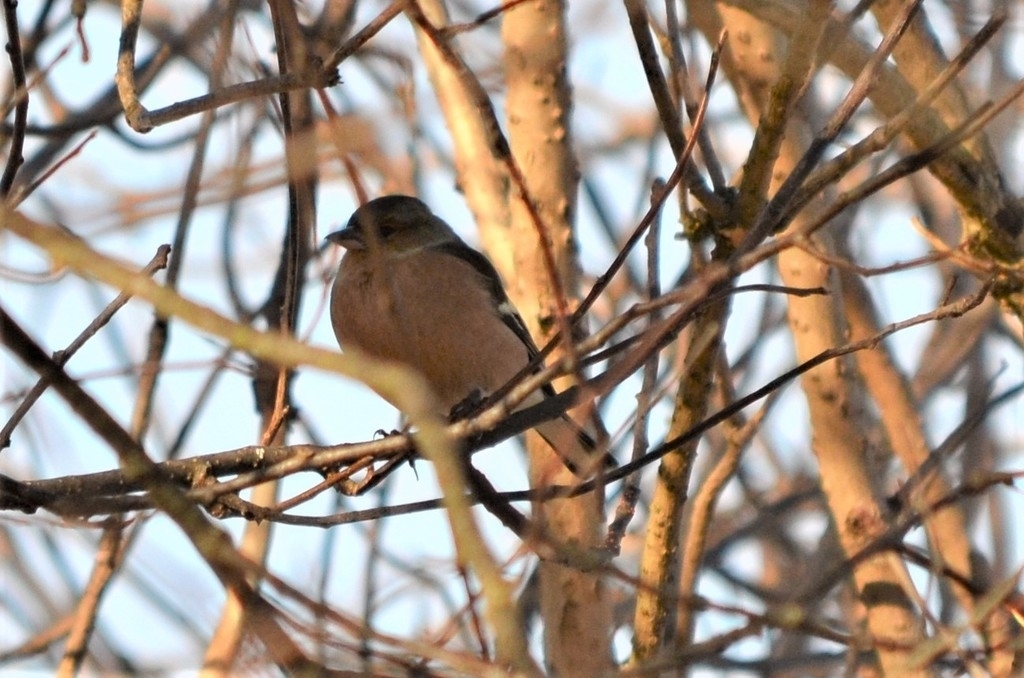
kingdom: Animalia
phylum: Chordata
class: Aves
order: Passeriformes
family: Fringillidae
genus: Fringilla
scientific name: Fringilla coelebs
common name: Common chaffinch
